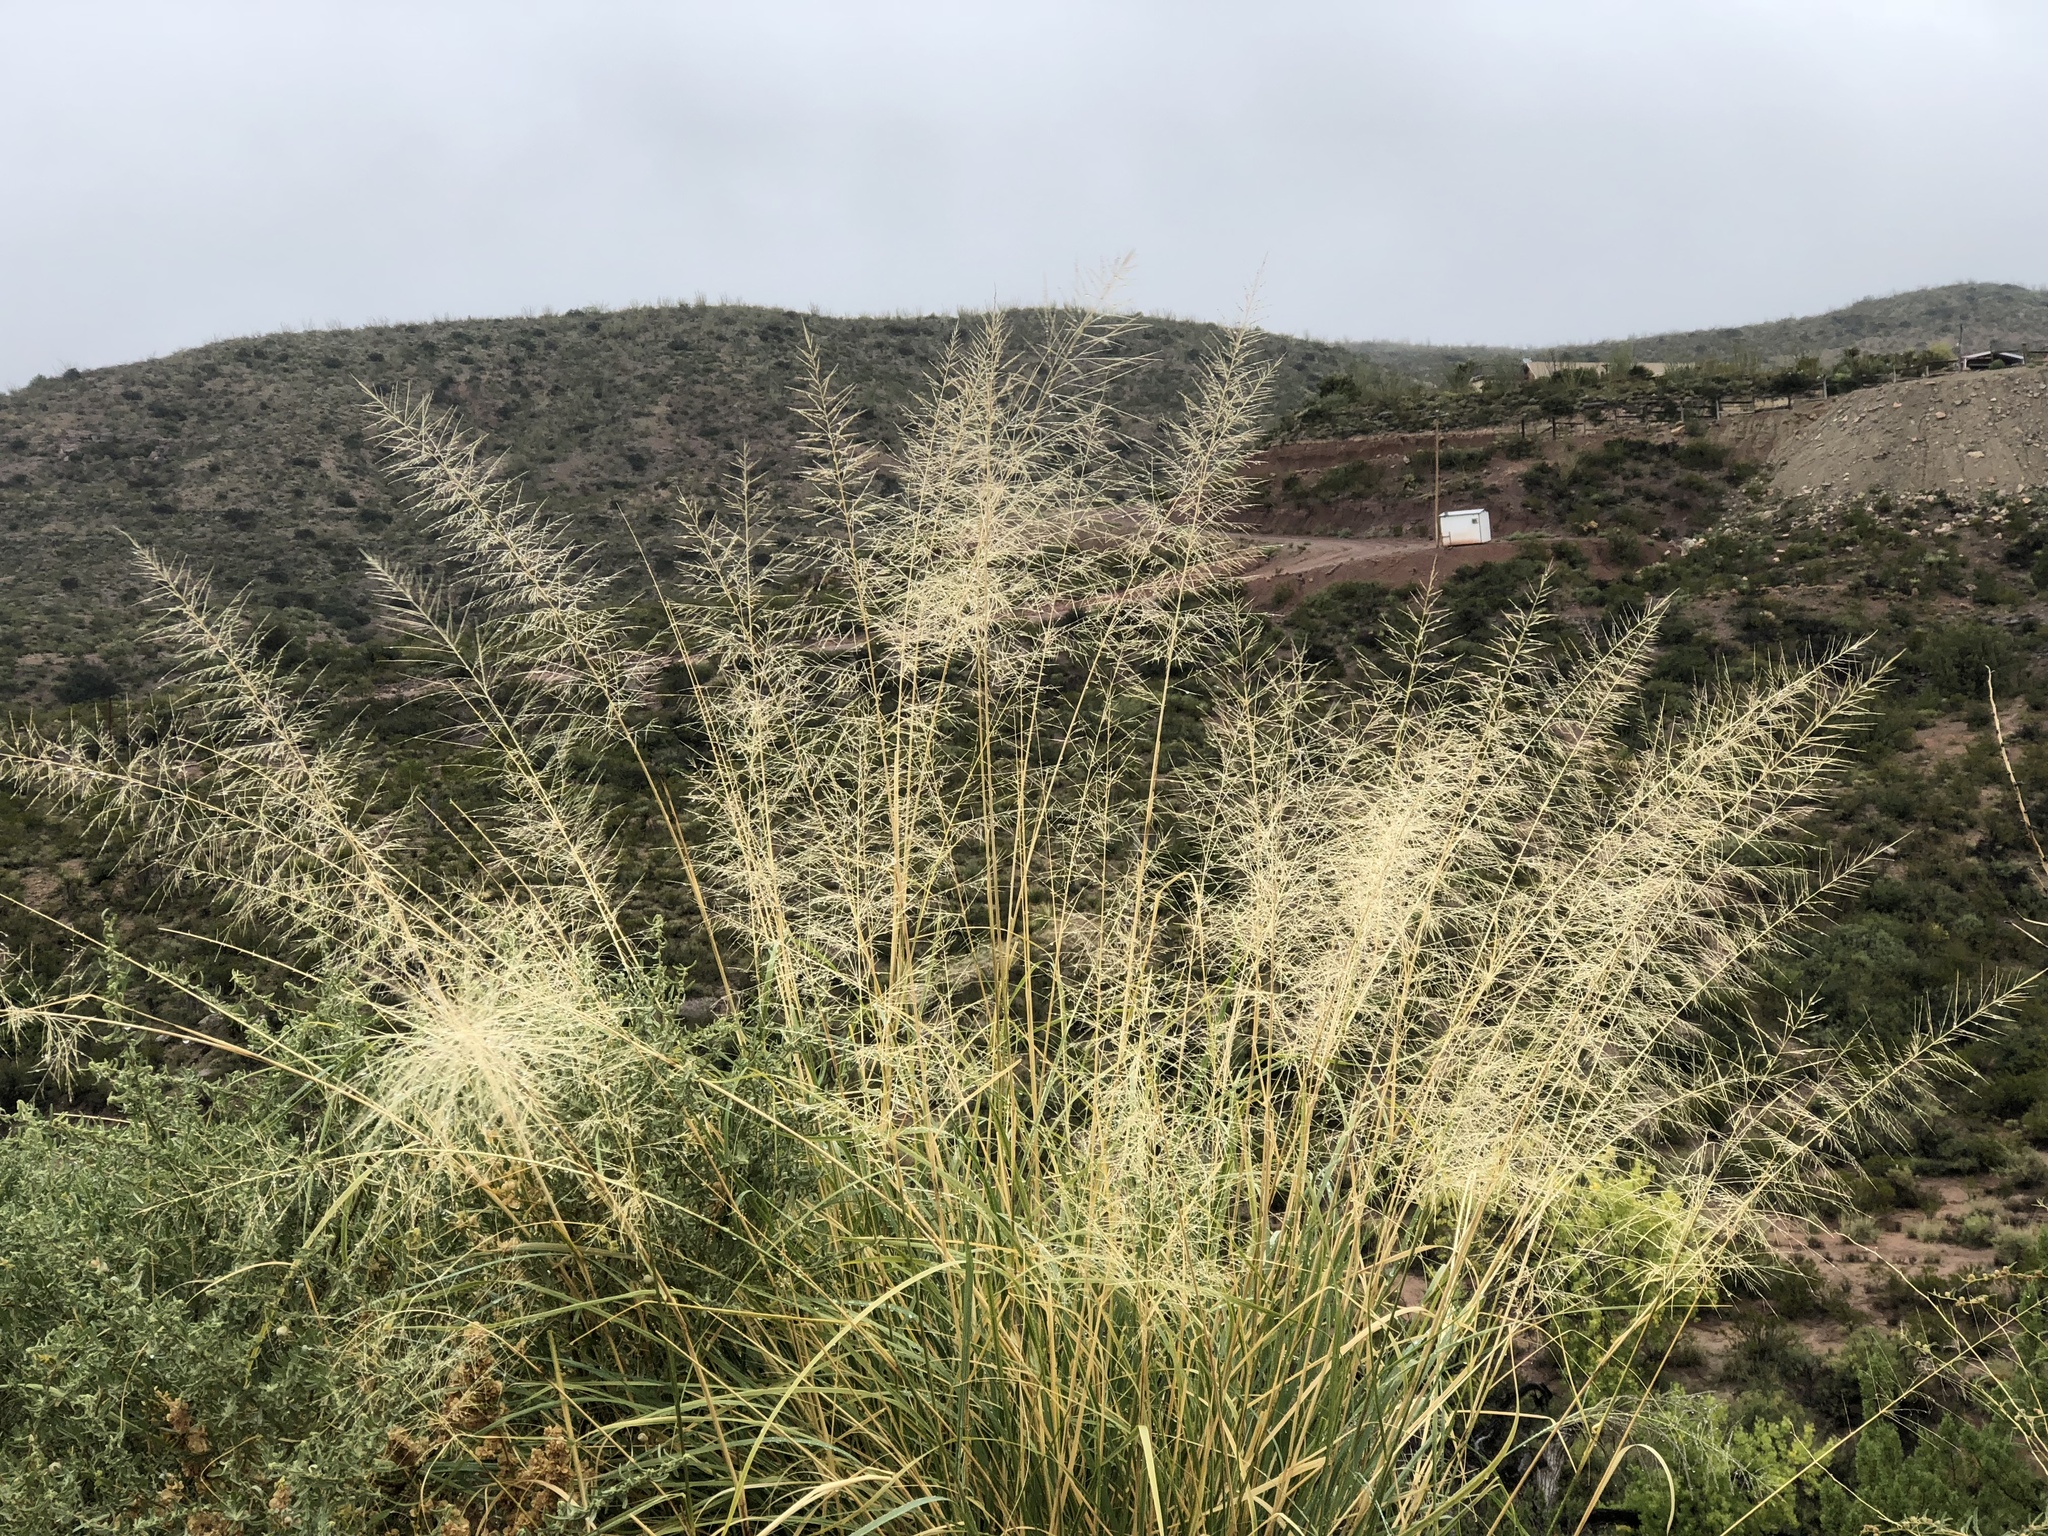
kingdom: Plantae
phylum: Tracheophyta
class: Liliopsida
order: Poales
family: Poaceae
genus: Sporobolus
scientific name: Sporobolus wrightii
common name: Big alkali sacaton
